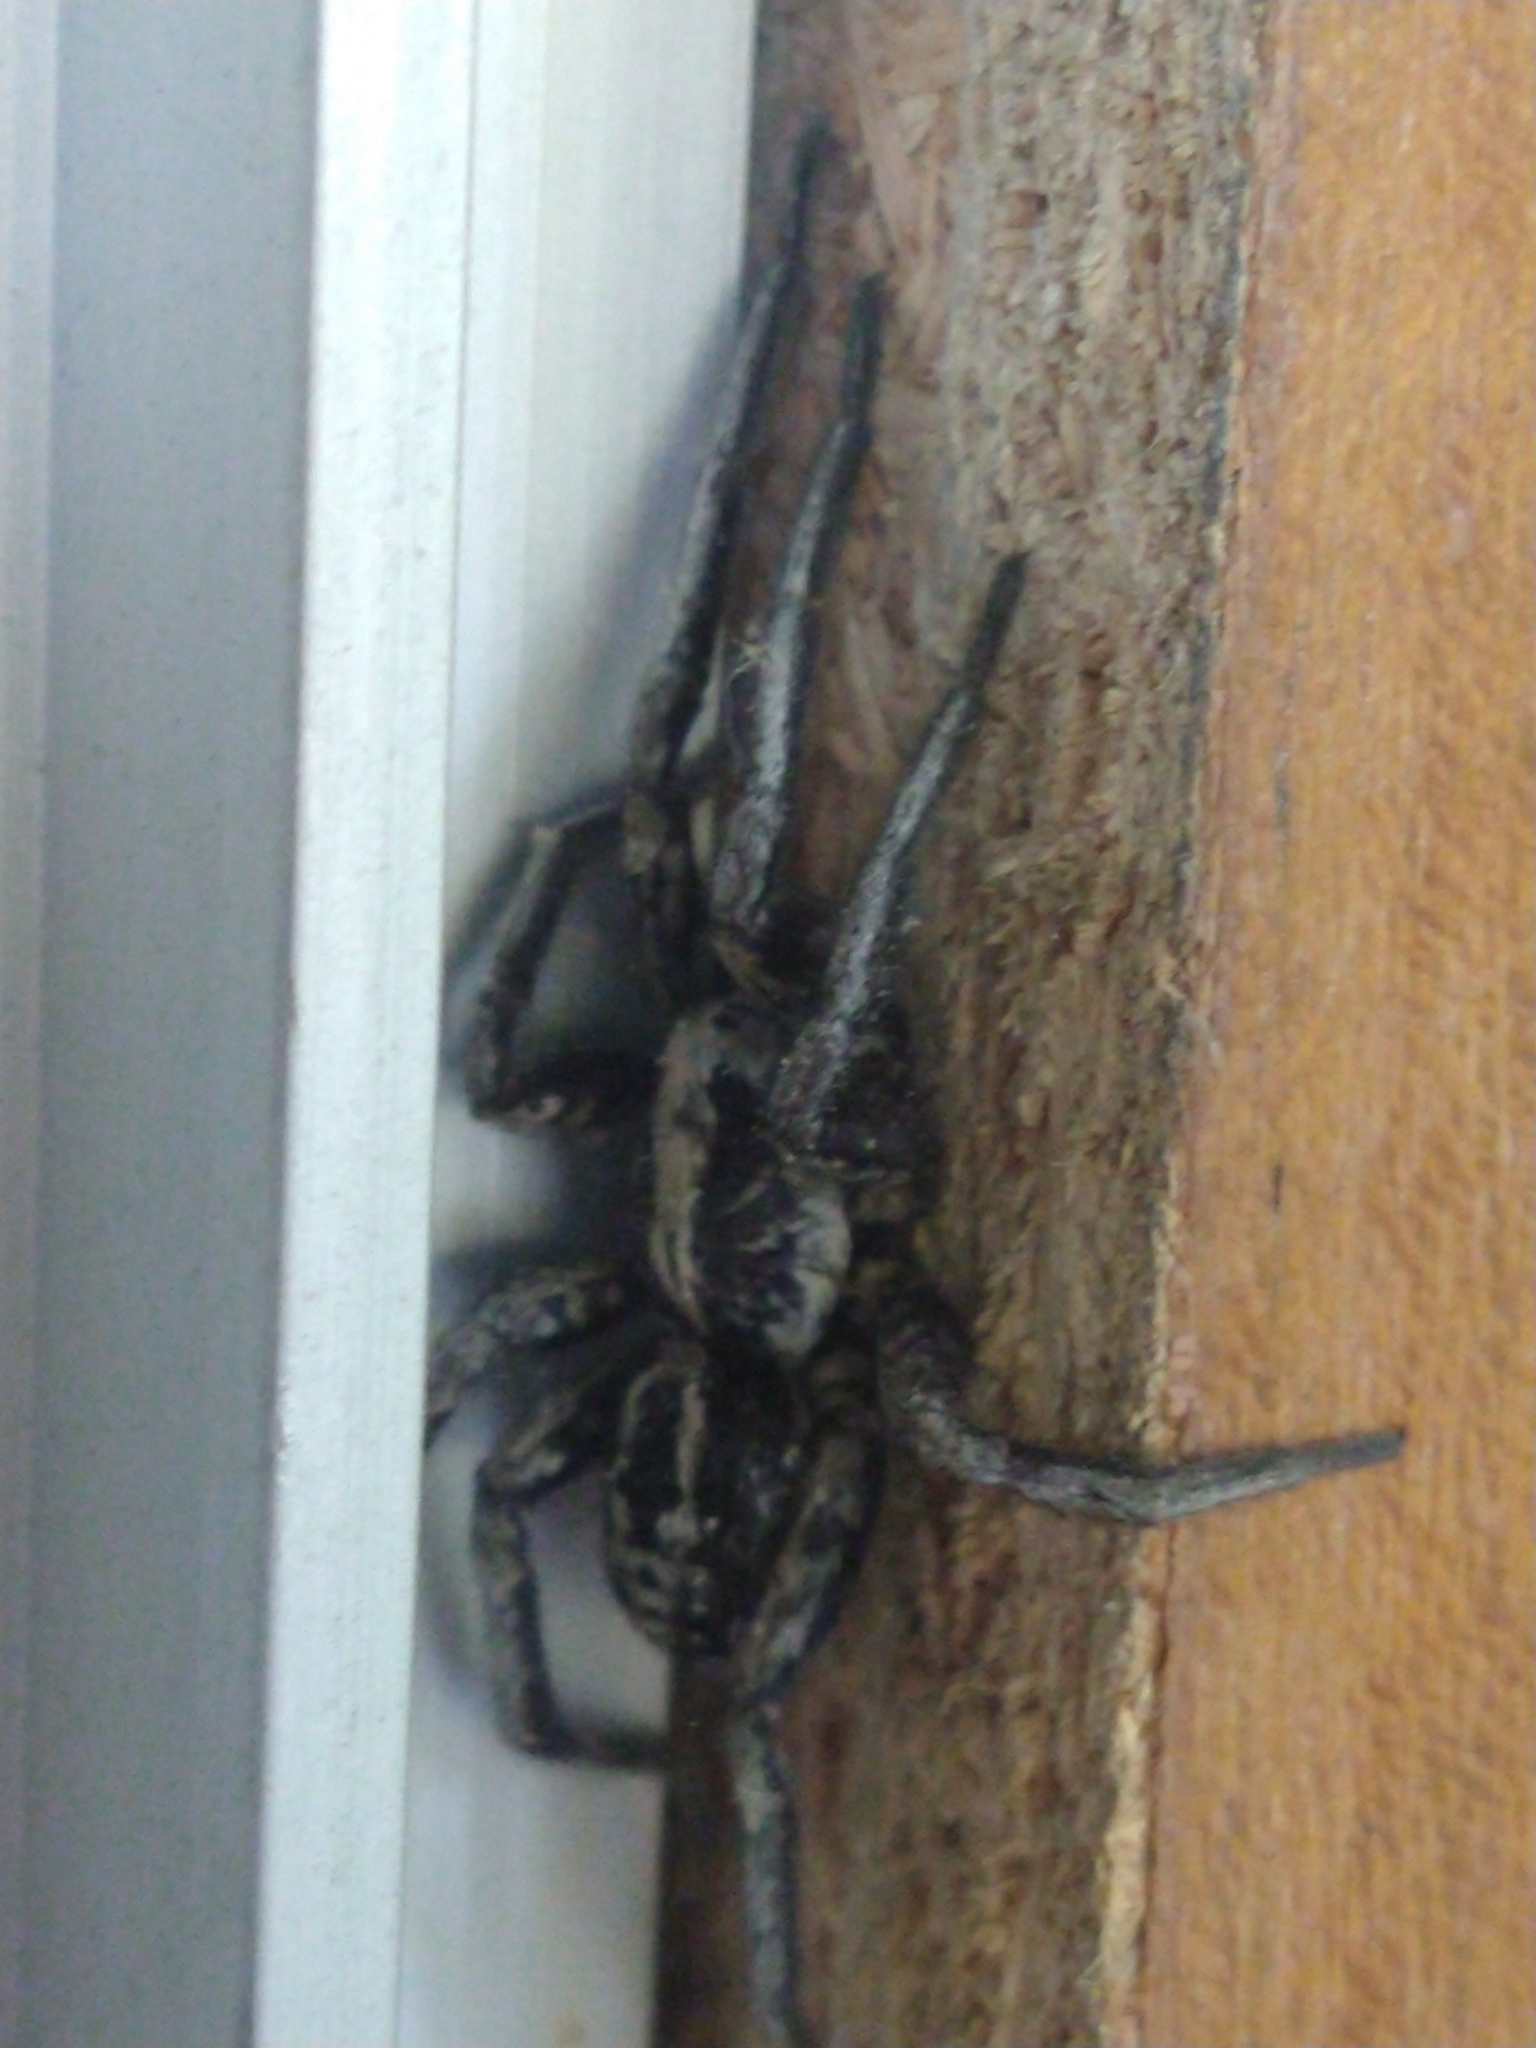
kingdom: Animalia
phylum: Arthropoda
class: Arachnida
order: Araneae
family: Lycosidae
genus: Lycosa
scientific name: Lycosa australis
